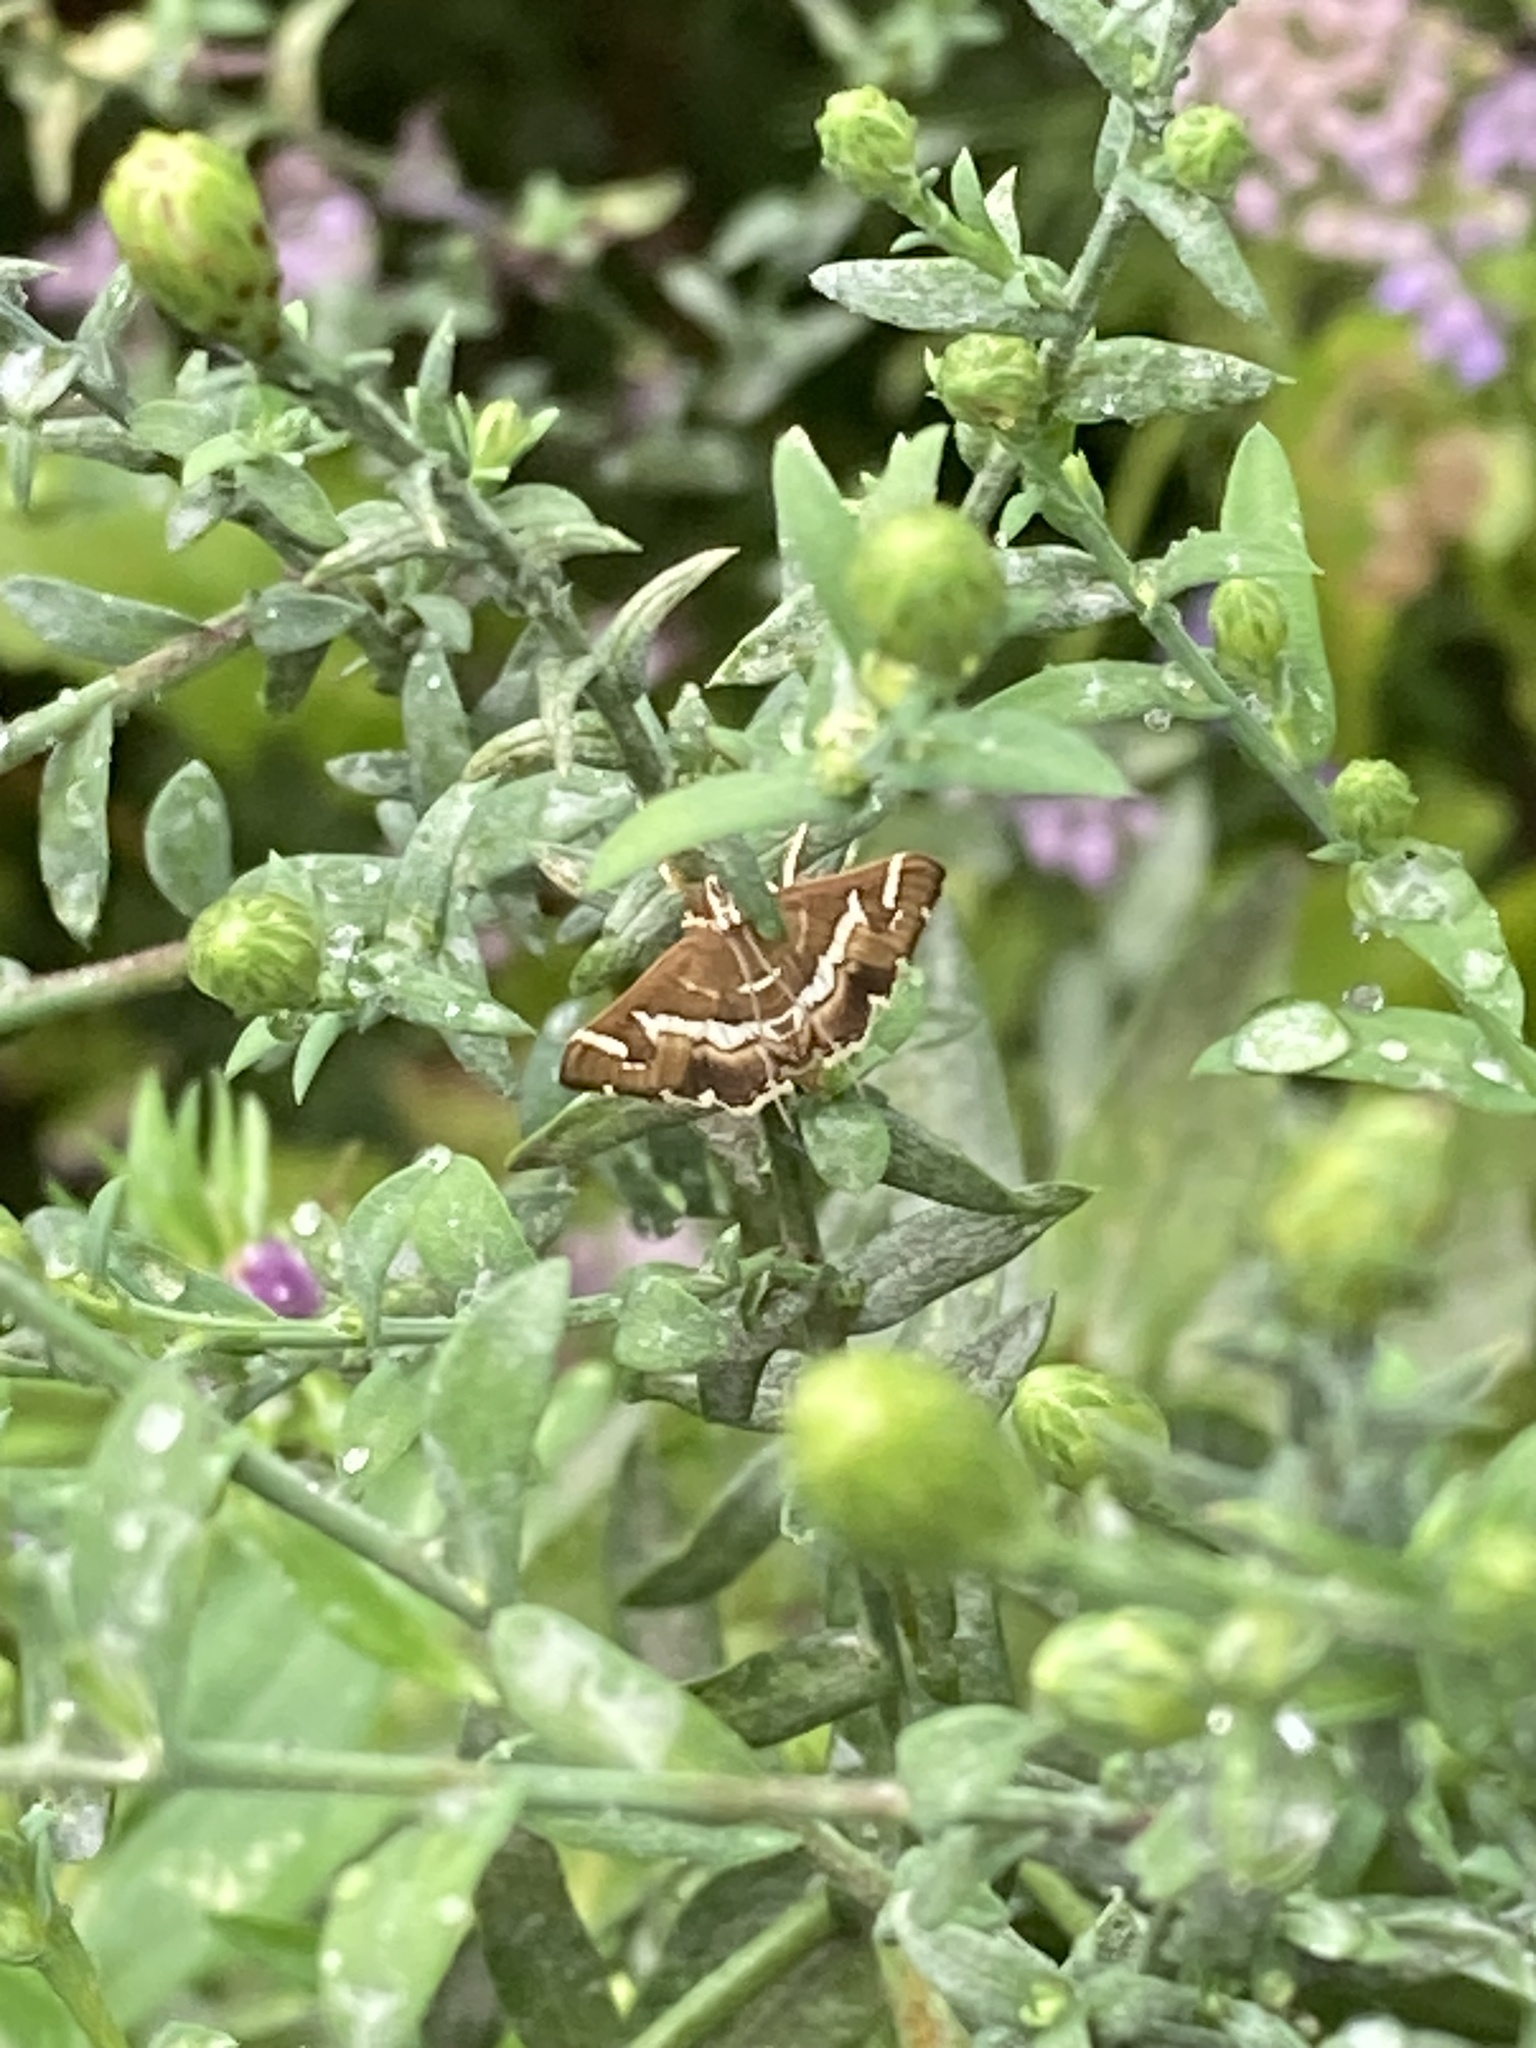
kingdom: Animalia
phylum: Arthropoda
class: Insecta
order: Lepidoptera
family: Crambidae
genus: Spoladea
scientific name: Spoladea recurvalis
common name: Beet webworm moth
